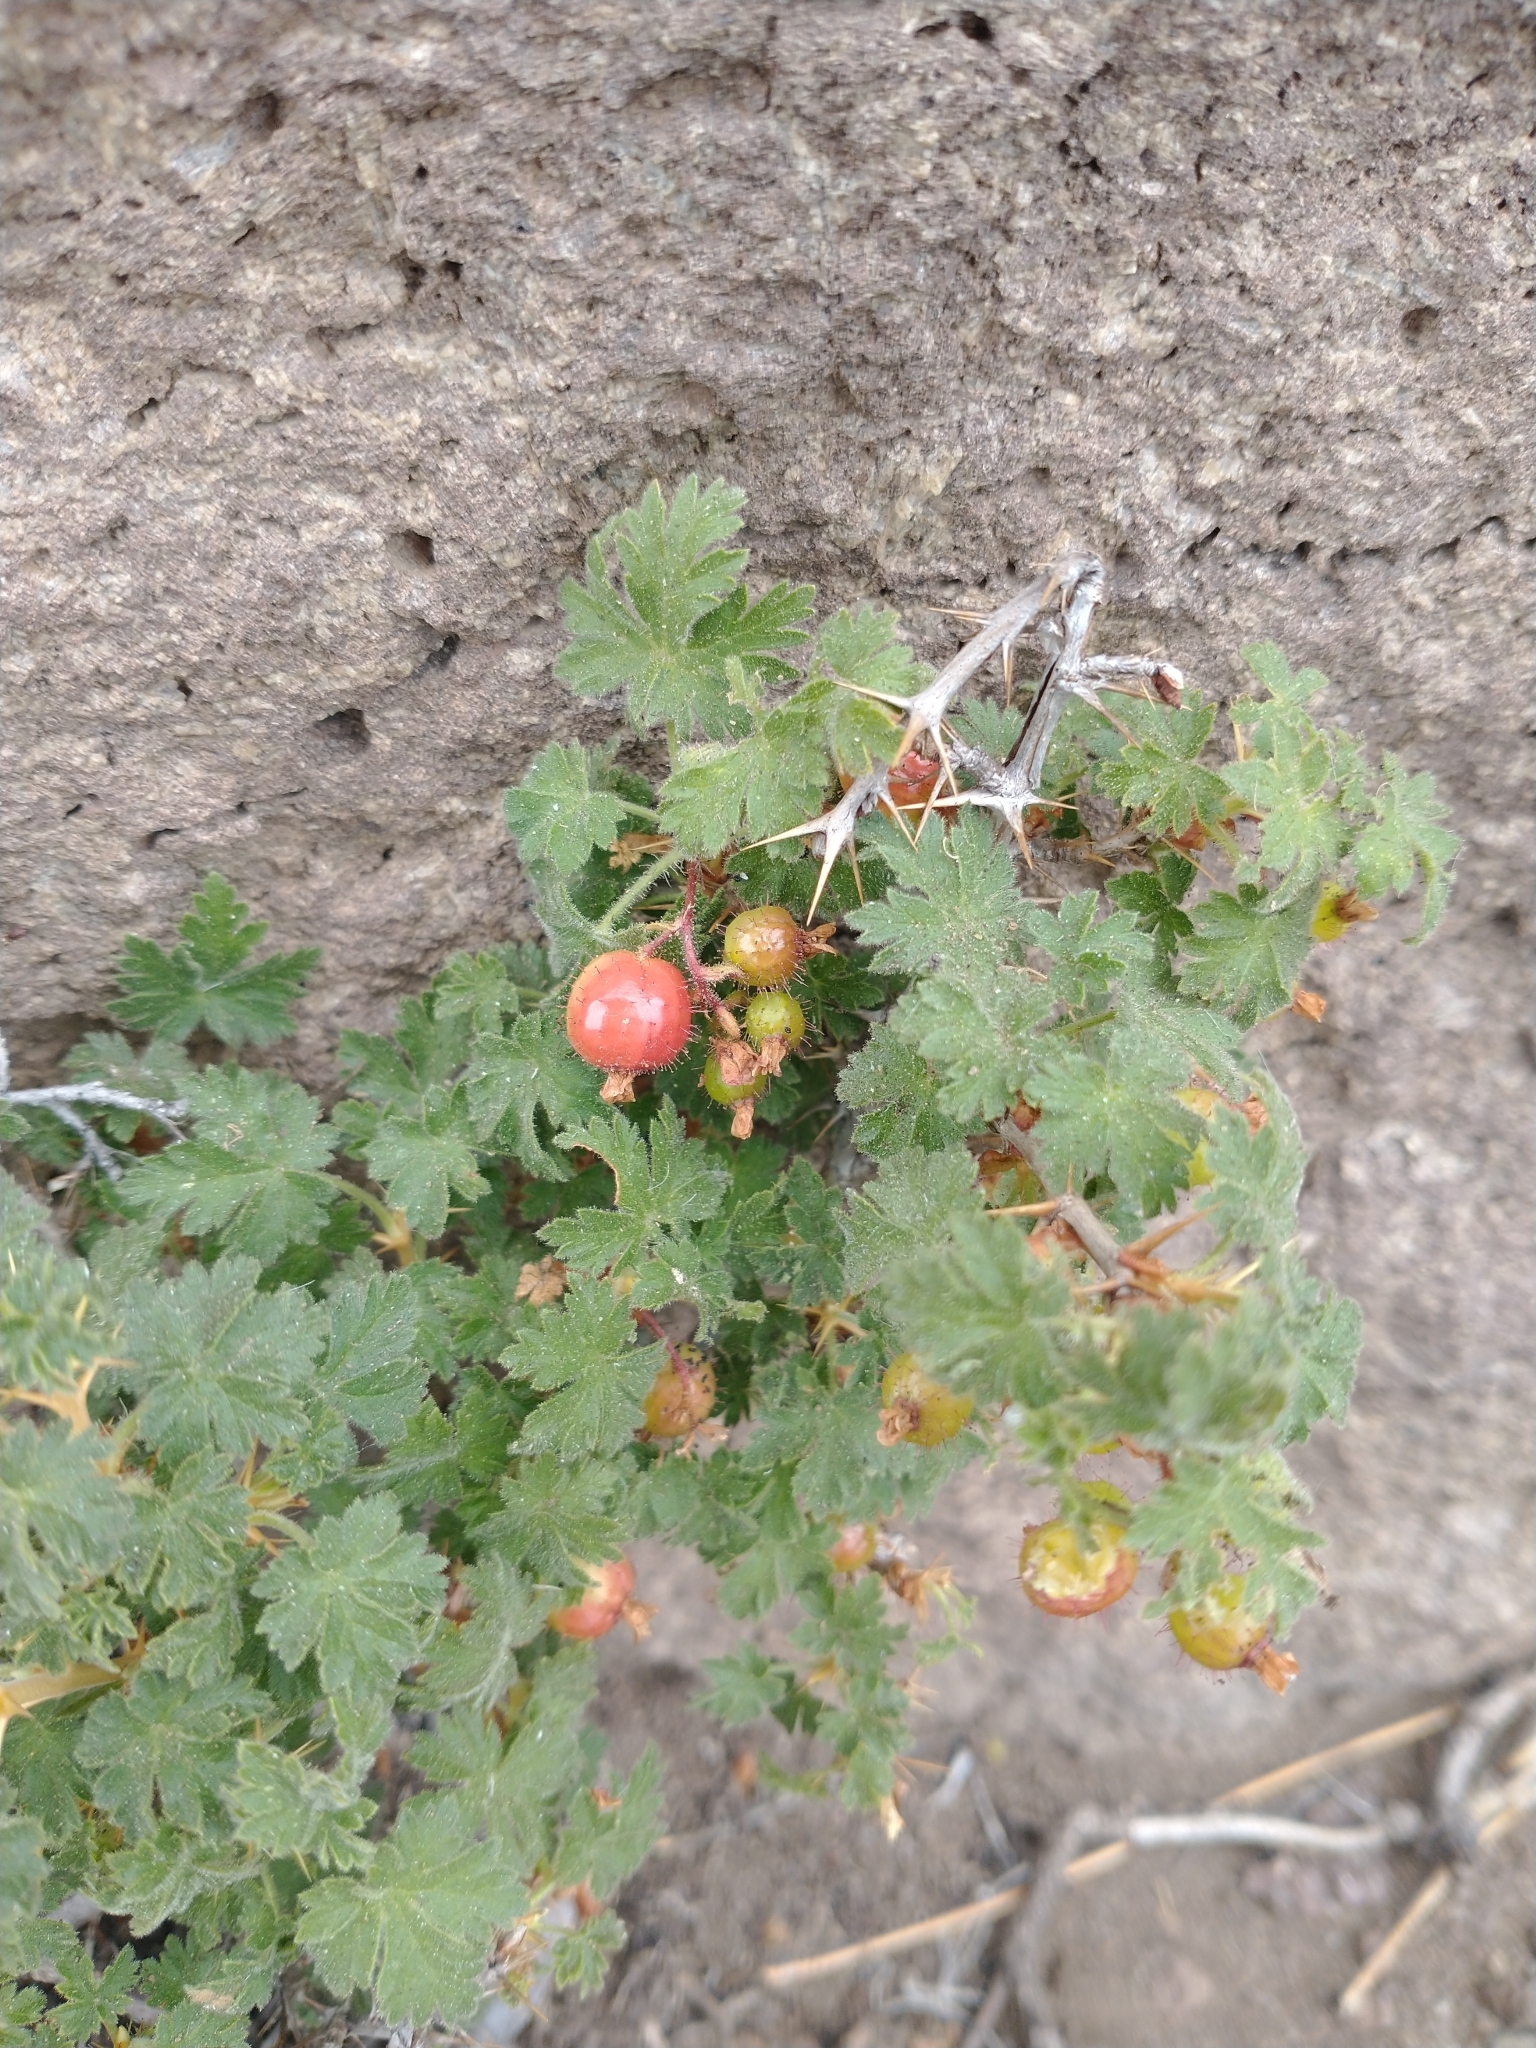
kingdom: Plantae
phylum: Tracheophyta
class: Magnoliopsida
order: Saxifragales
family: Grossulariaceae
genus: Ribes
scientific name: Ribes montigenum
